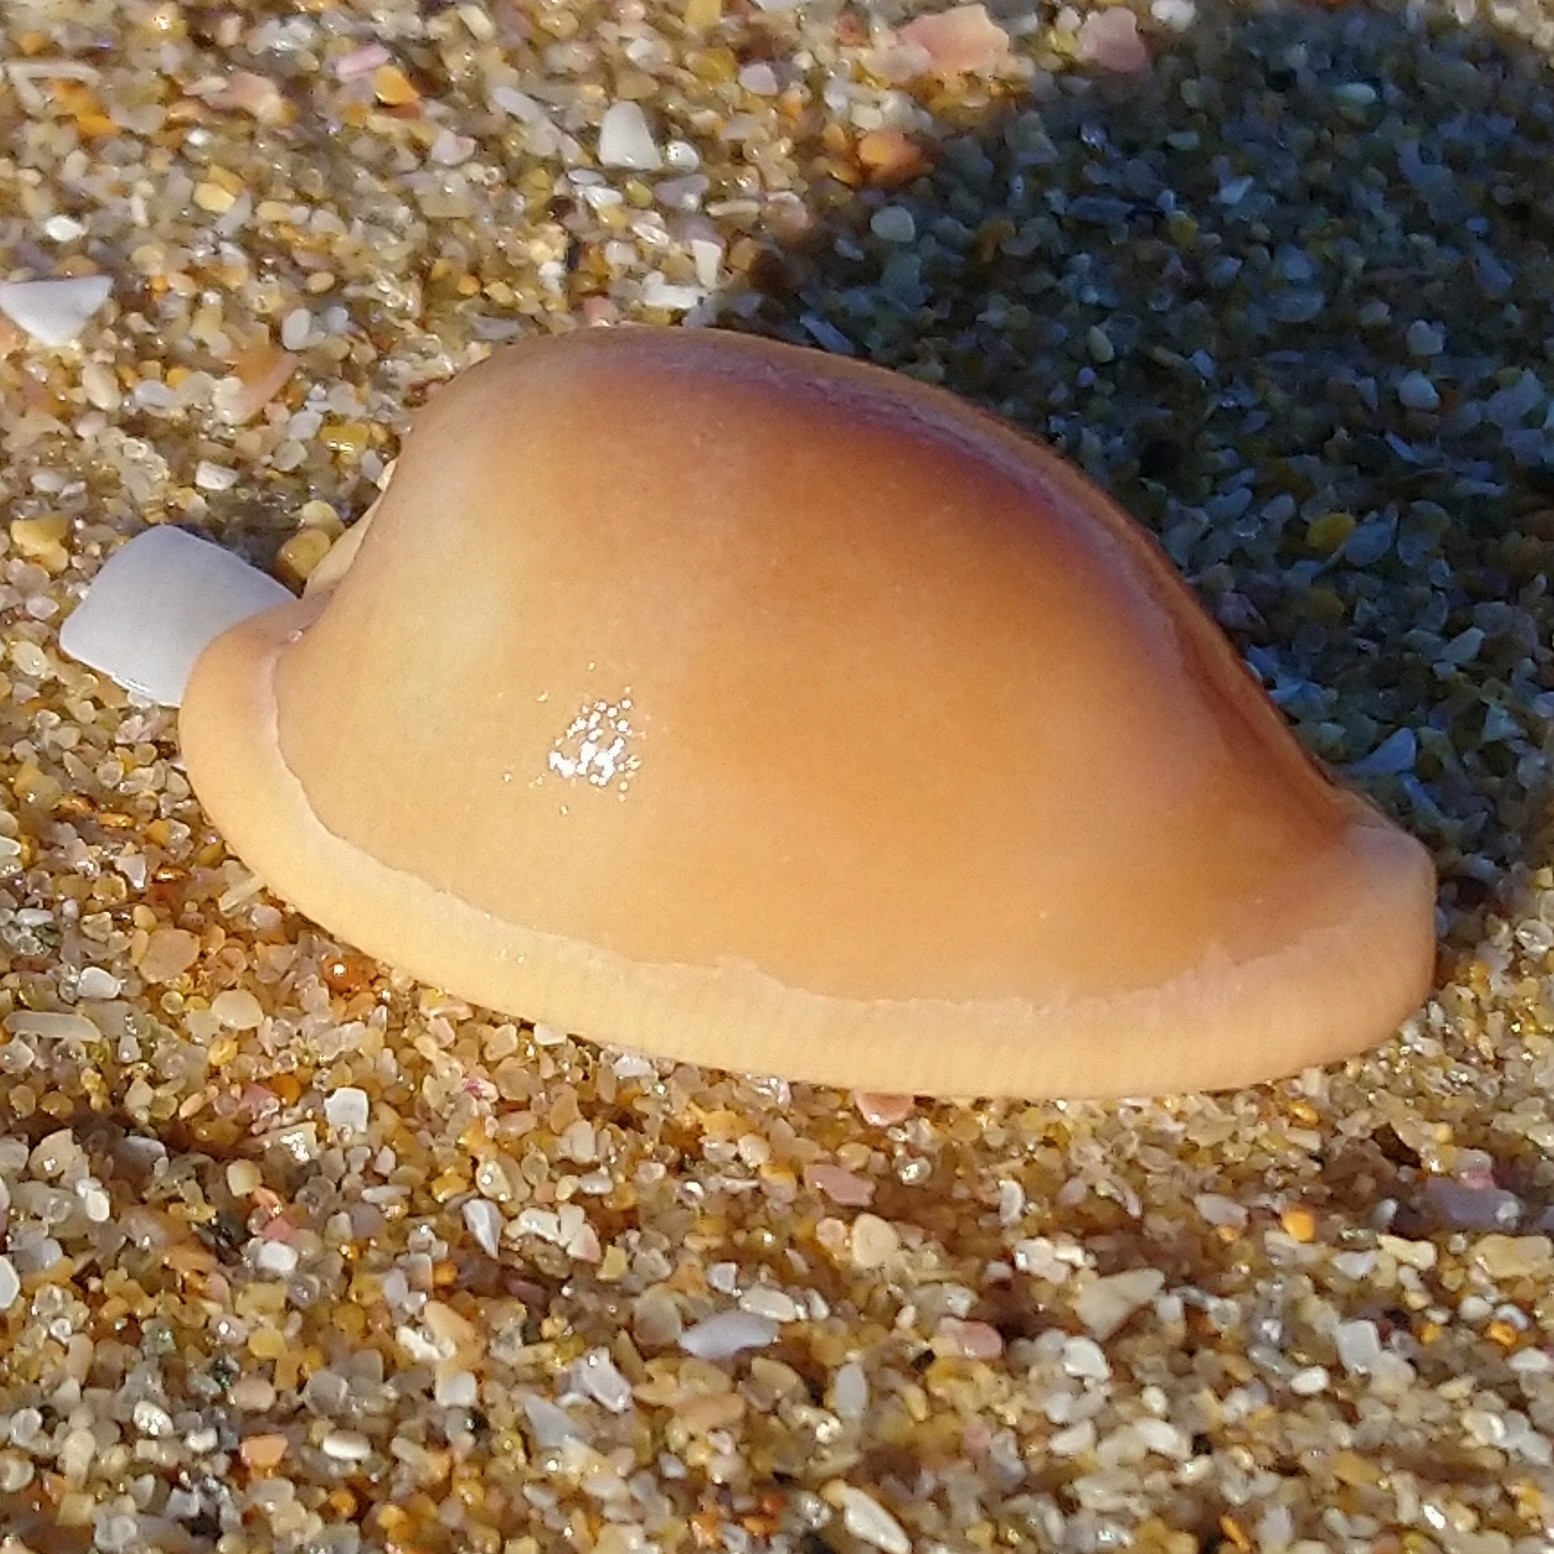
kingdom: Animalia
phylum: Mollusca
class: Gastropoda
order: Littorinimorpha
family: Cypraeidae
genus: Cypraeovula
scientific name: Cypraeovula capensis
